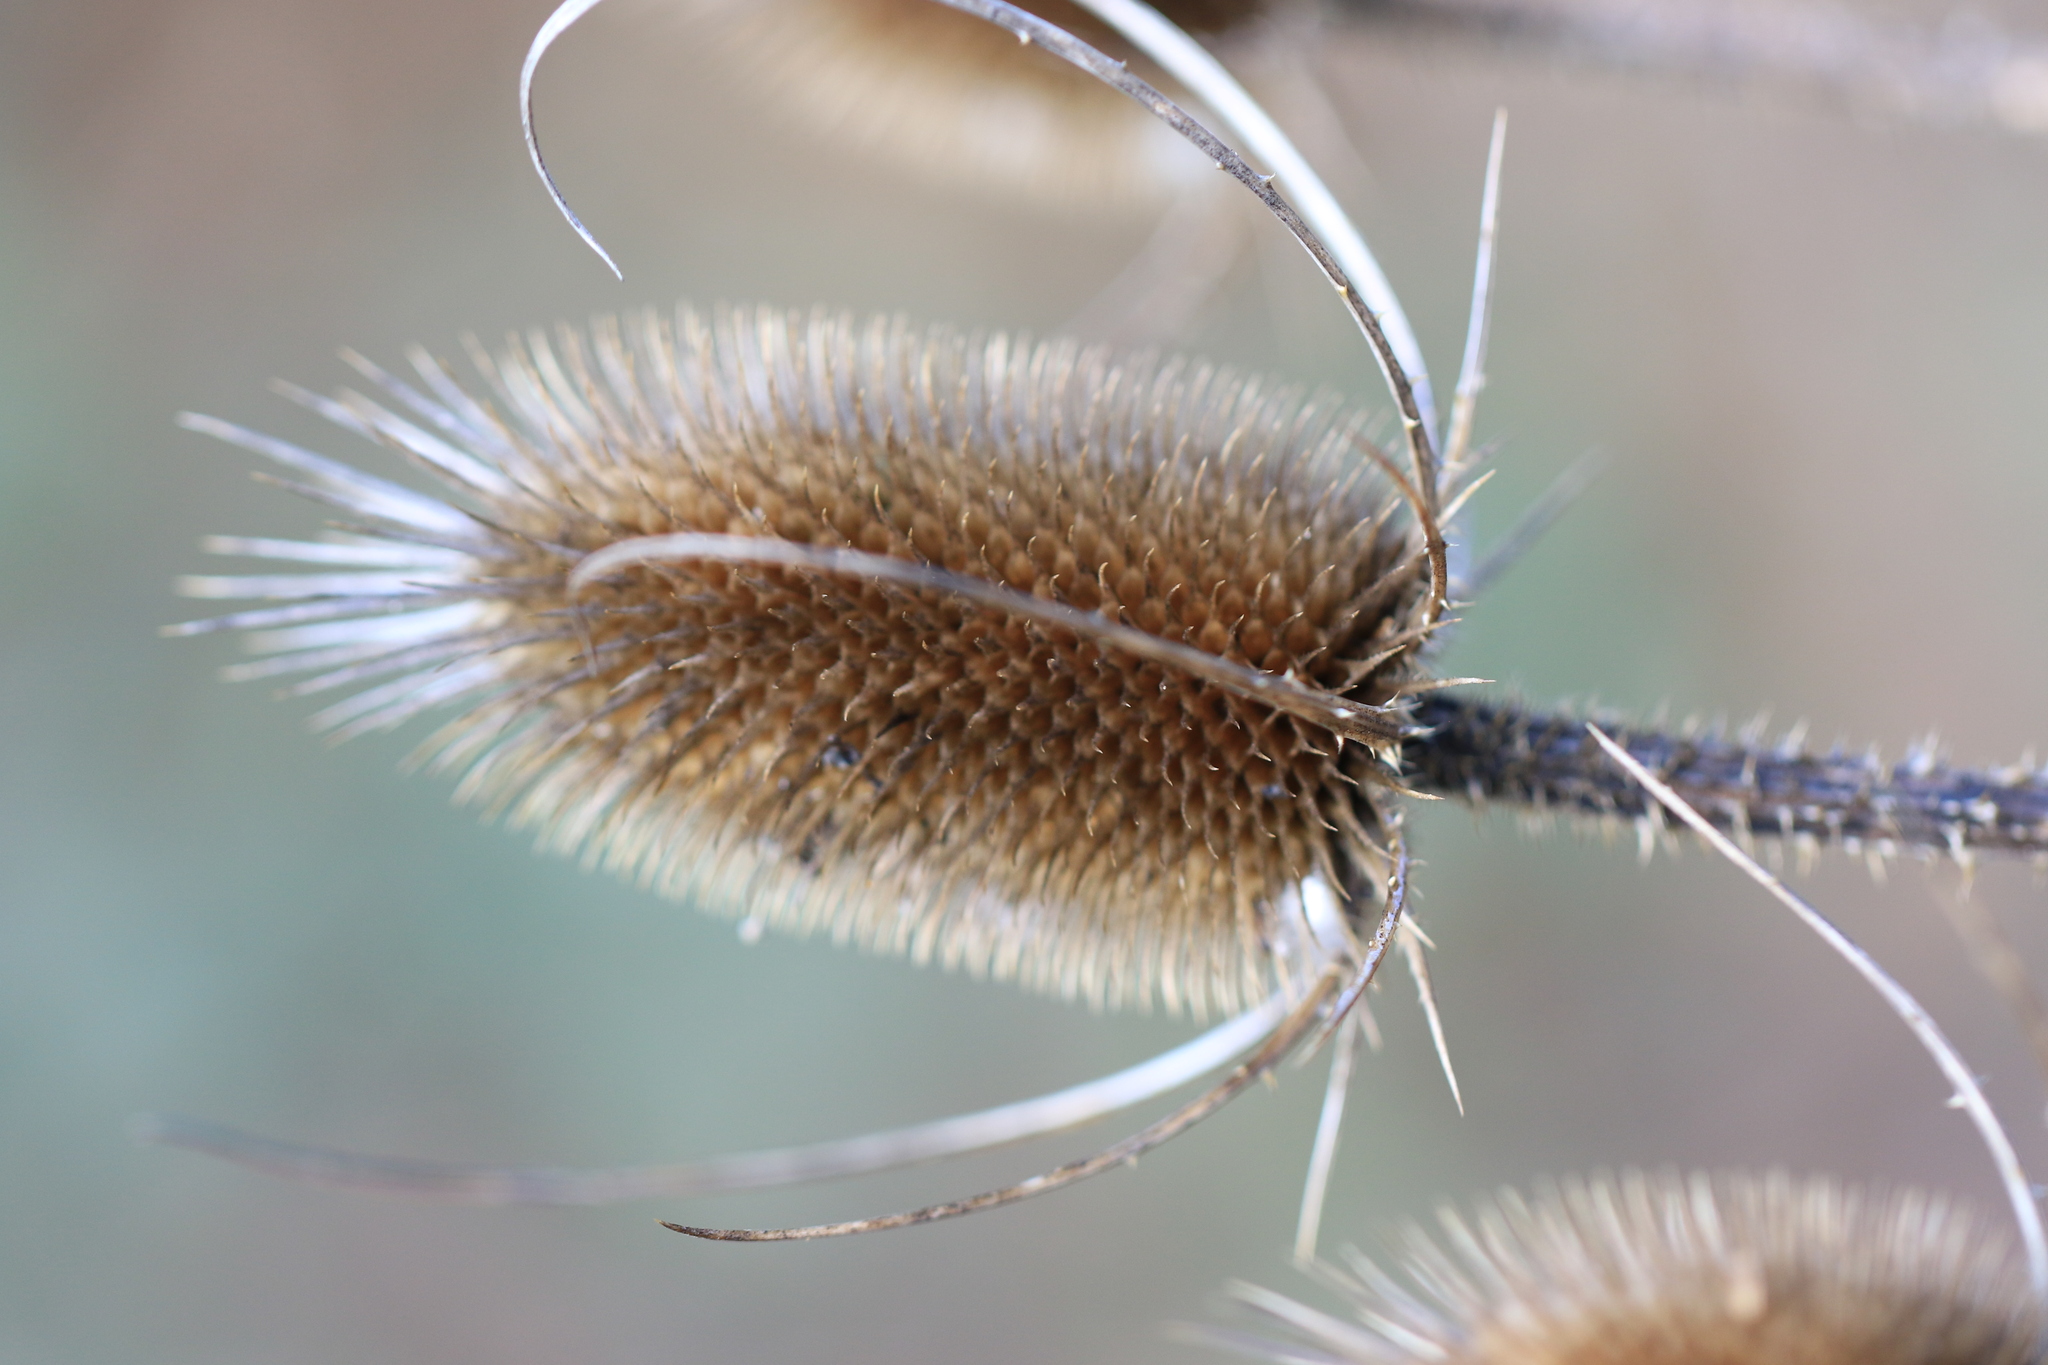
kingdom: Plantae
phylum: Tracheophyta
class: Magnoliopsida
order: Dipsacales
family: Caprifoliaceae
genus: Dipsacus
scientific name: Dipsacus fullonum
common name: Teasel
